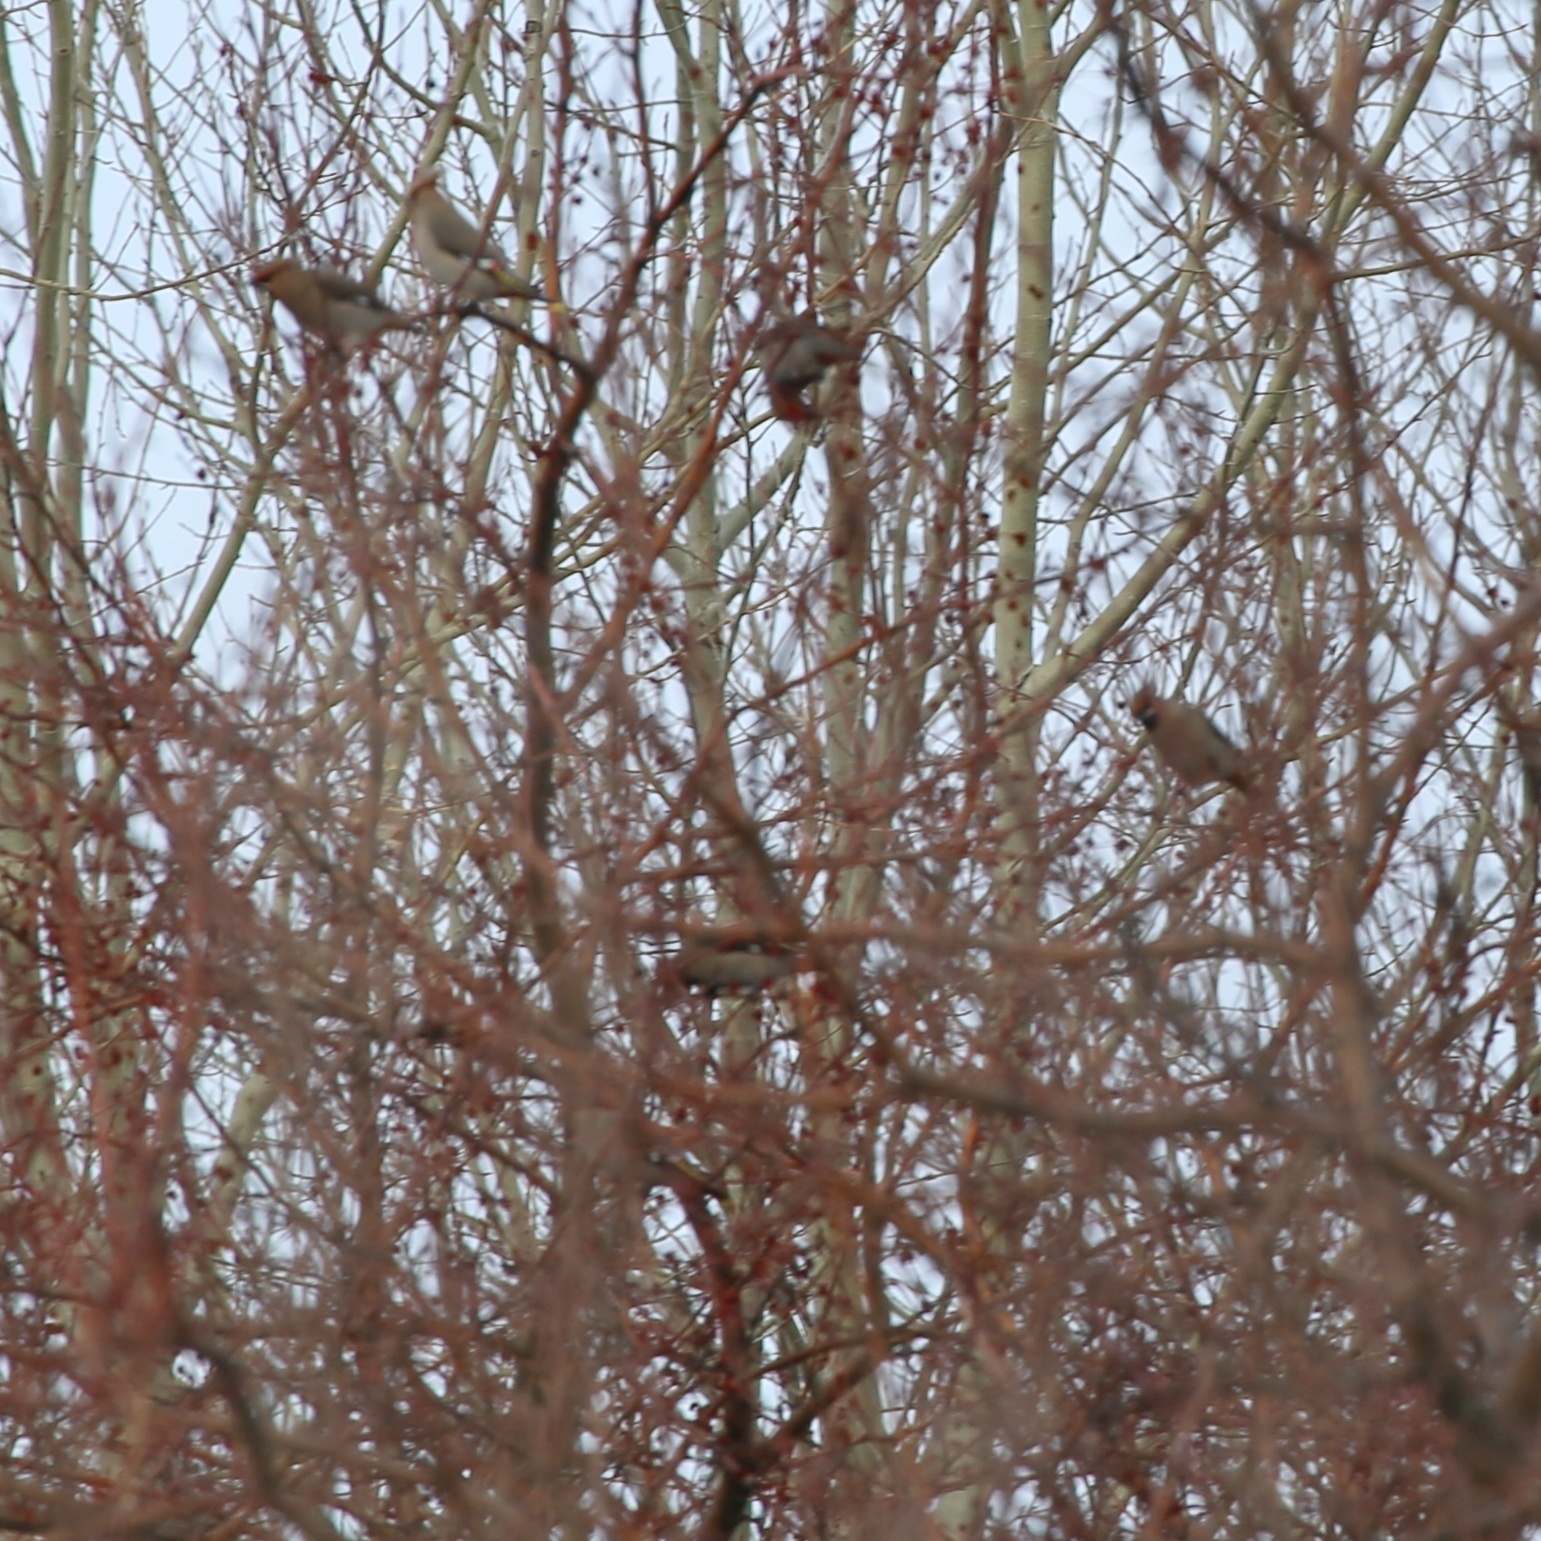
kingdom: Animalia
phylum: Chordata
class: Aves
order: Passeriformes
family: Bombycillidae
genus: Bombycilla
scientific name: Bombycilla garrulus
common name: Bohemian waxwing
